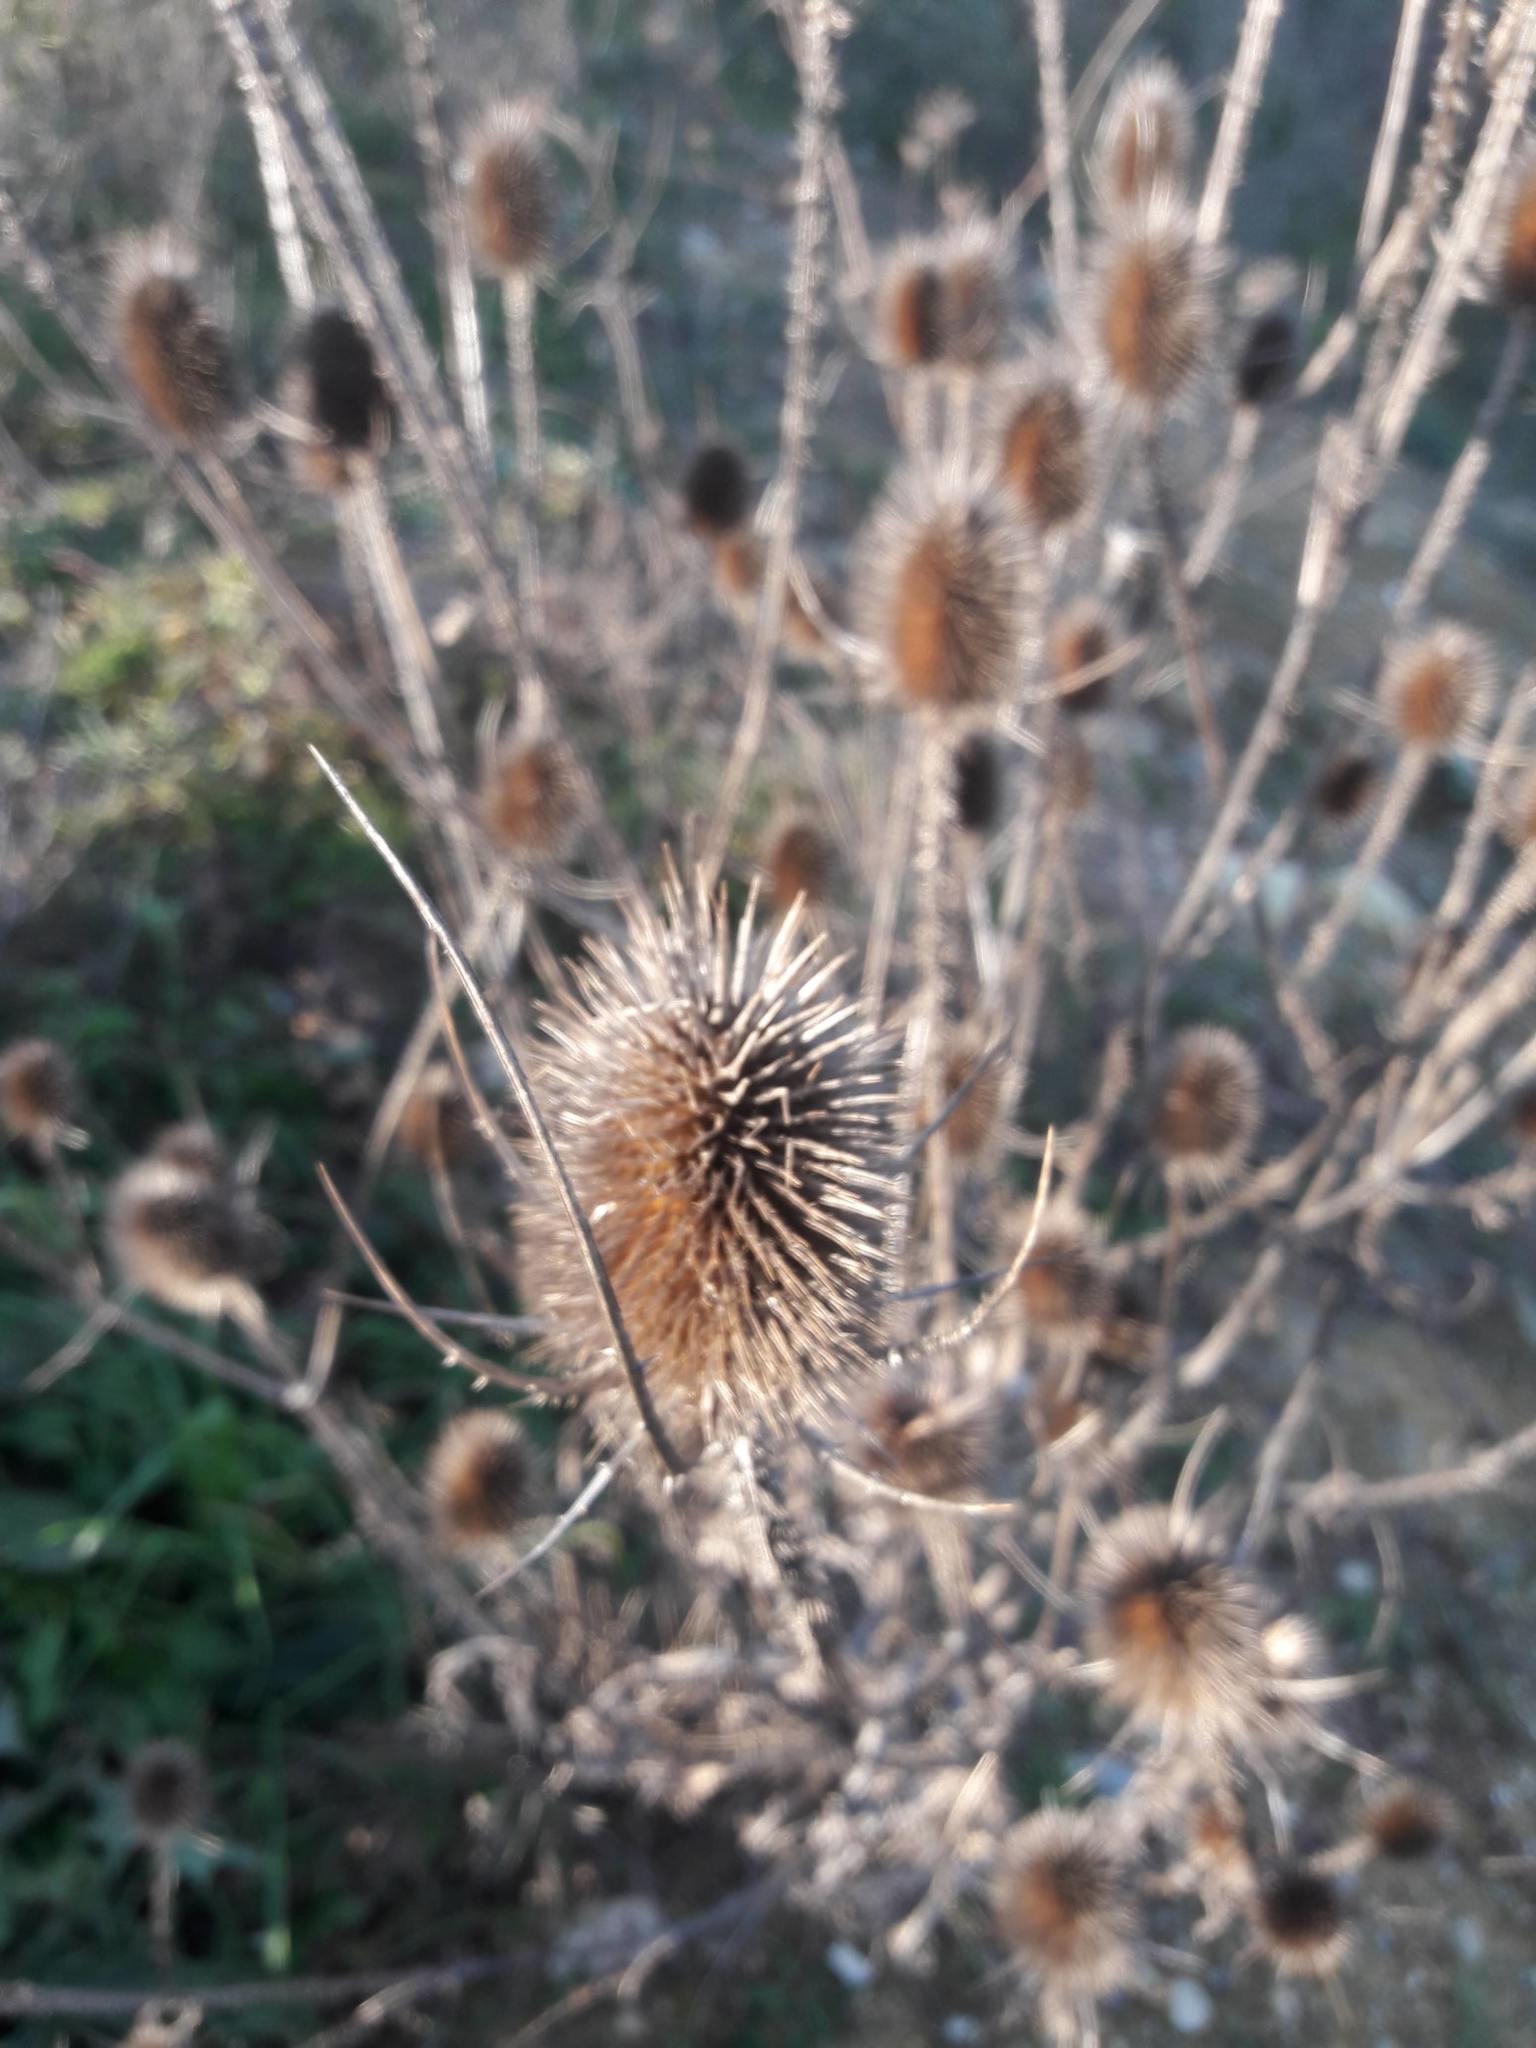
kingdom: Plantae
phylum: Tracheophyta
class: Magnoliopsida
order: Dipsacales
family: Caprifoliaceae
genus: Dipsacus
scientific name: Dipsacus fullonum
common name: Teasel
